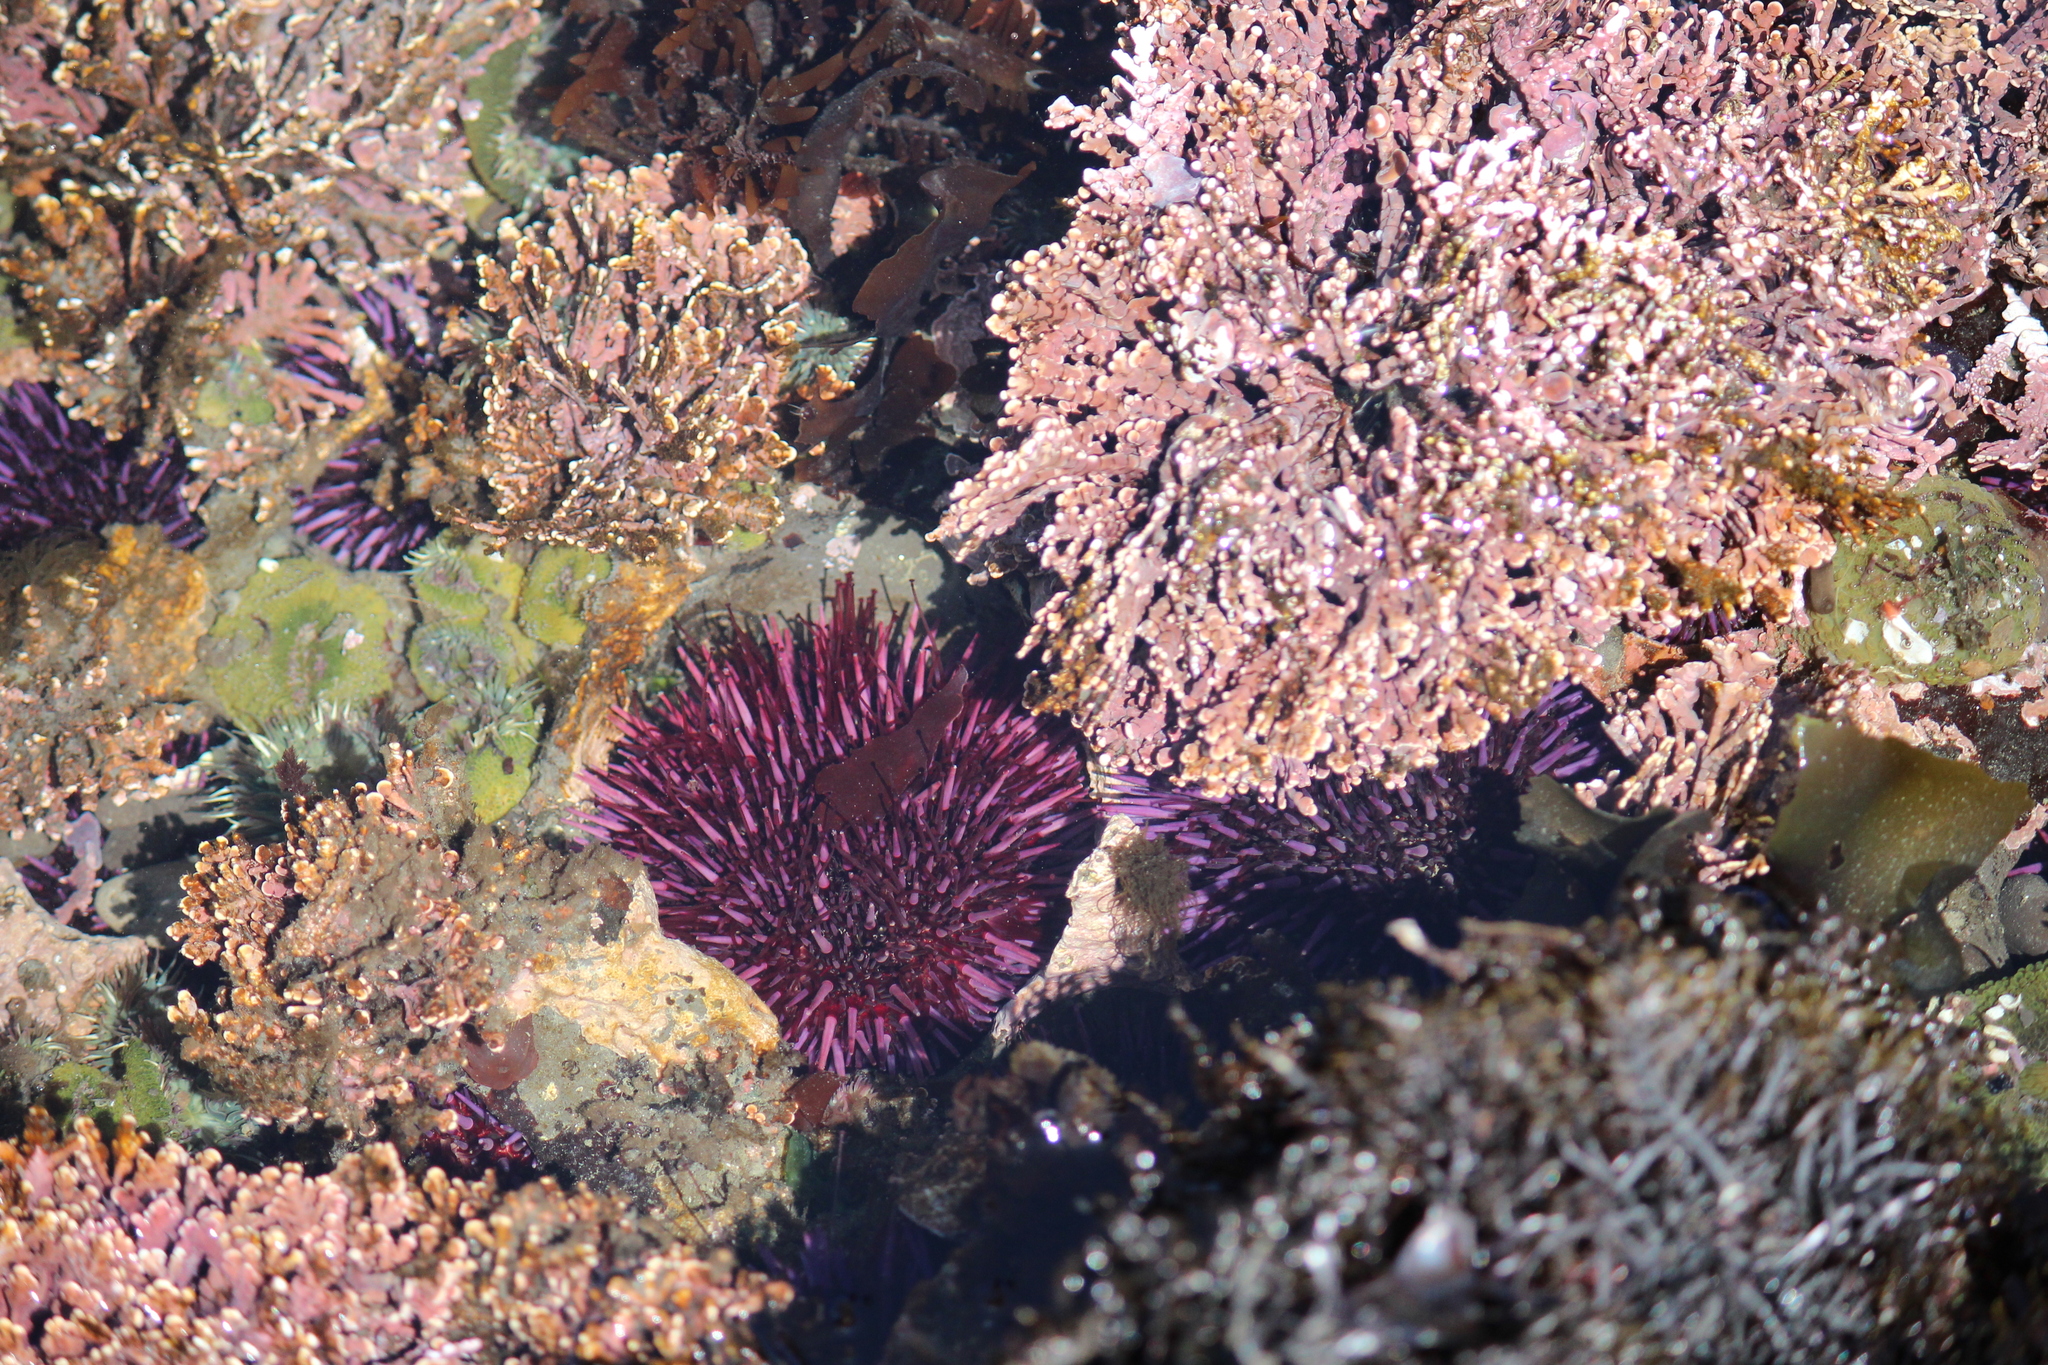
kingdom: Animalia
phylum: Echinodermata
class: Echinoidea
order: Camarodonta
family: Strongylocentrotidae
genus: Strongylocentrotus
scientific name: Strongylocentrotus purpuratus
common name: Purple sea urchin
